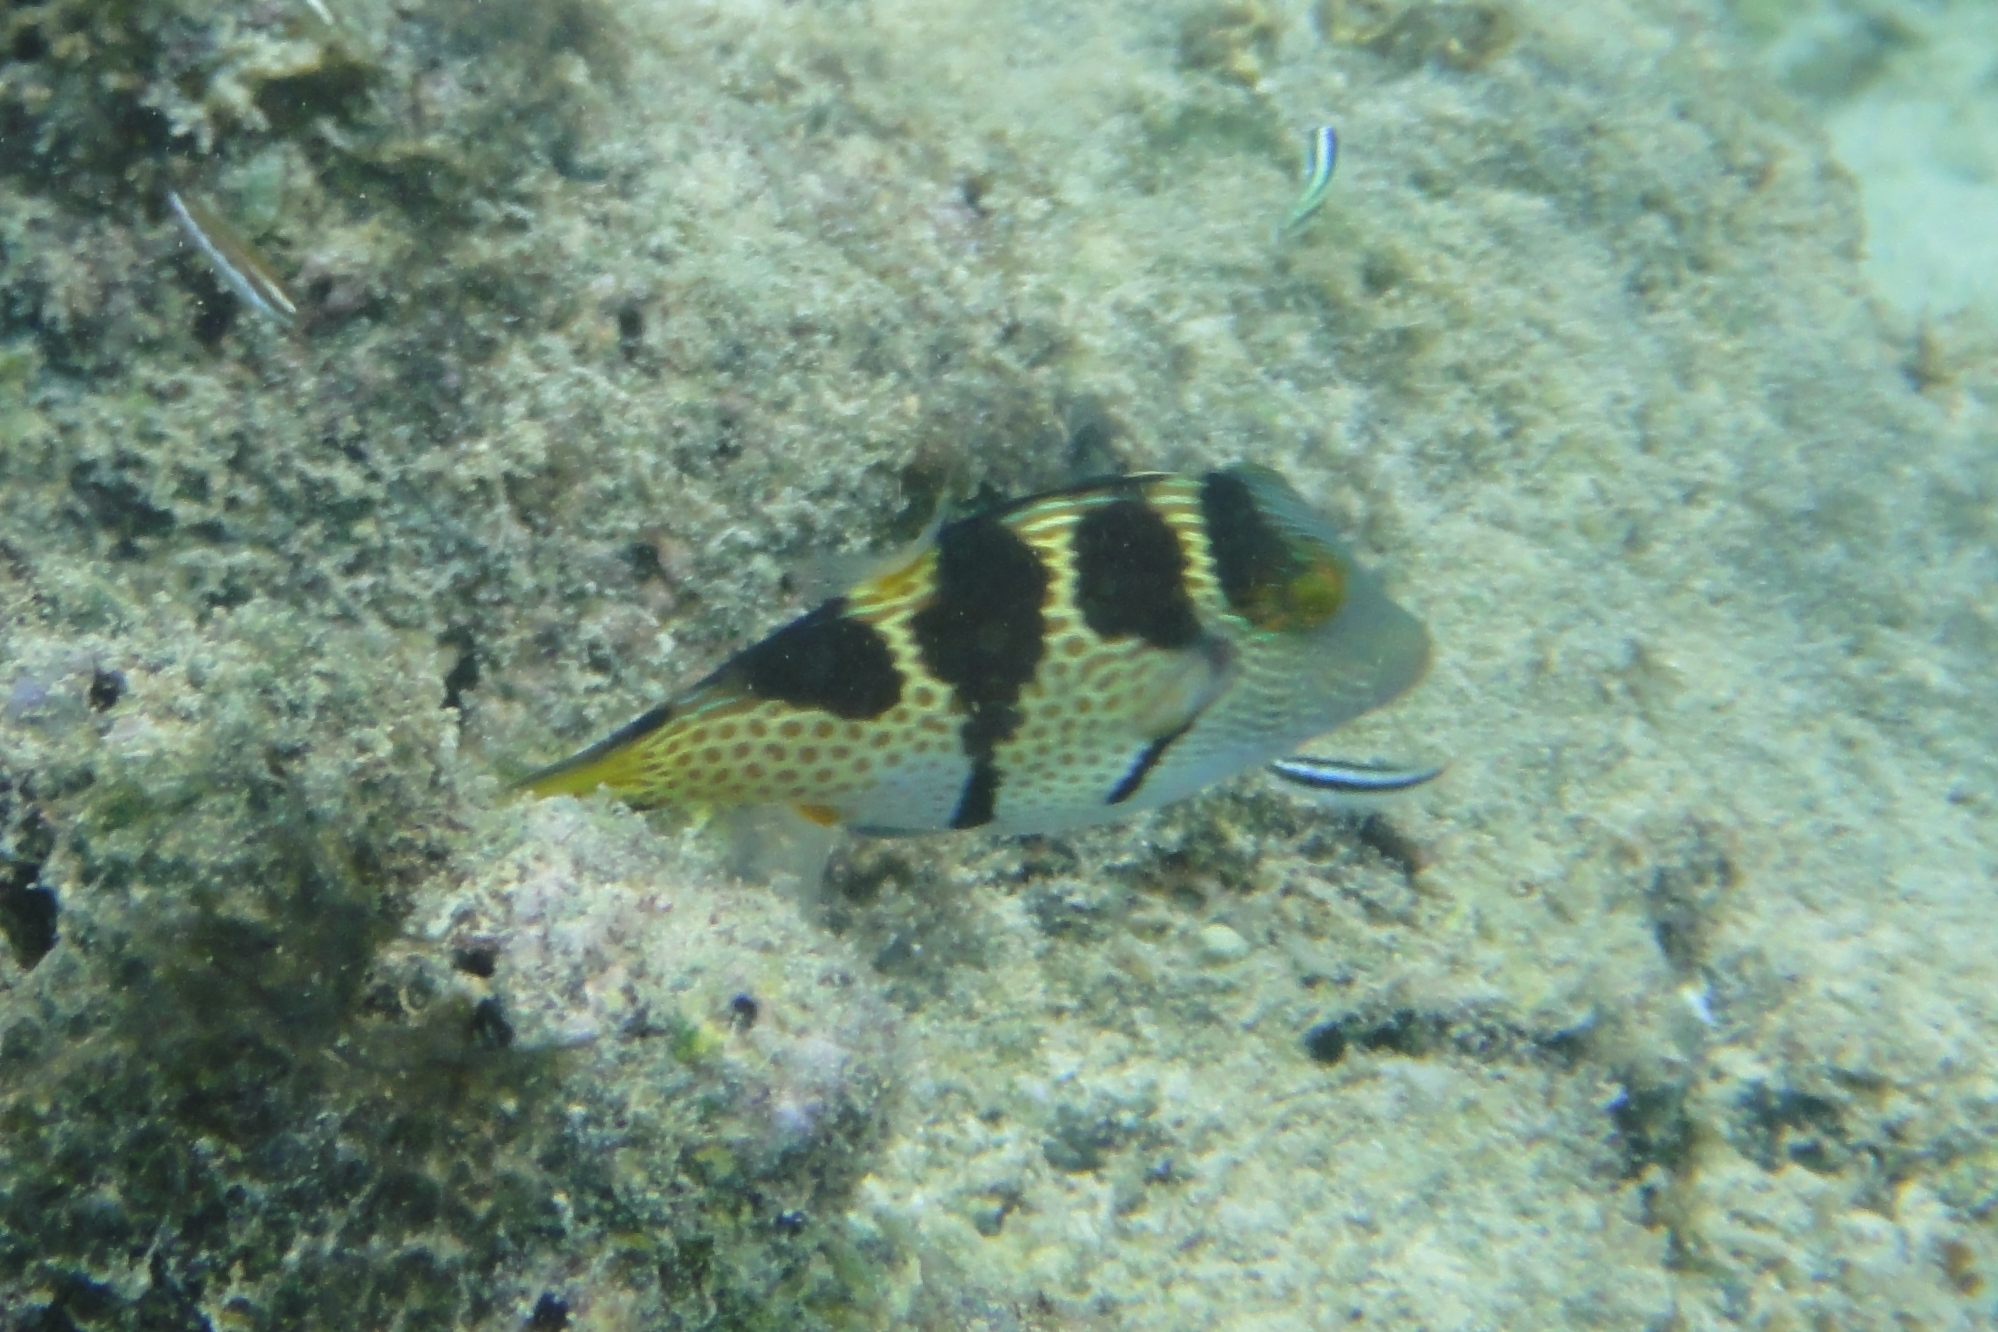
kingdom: Animalia
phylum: Chordata
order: Tetraodontiformes
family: Tetraodontidae
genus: Canthigaster
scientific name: Canthigaster valentini
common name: Banded toby
